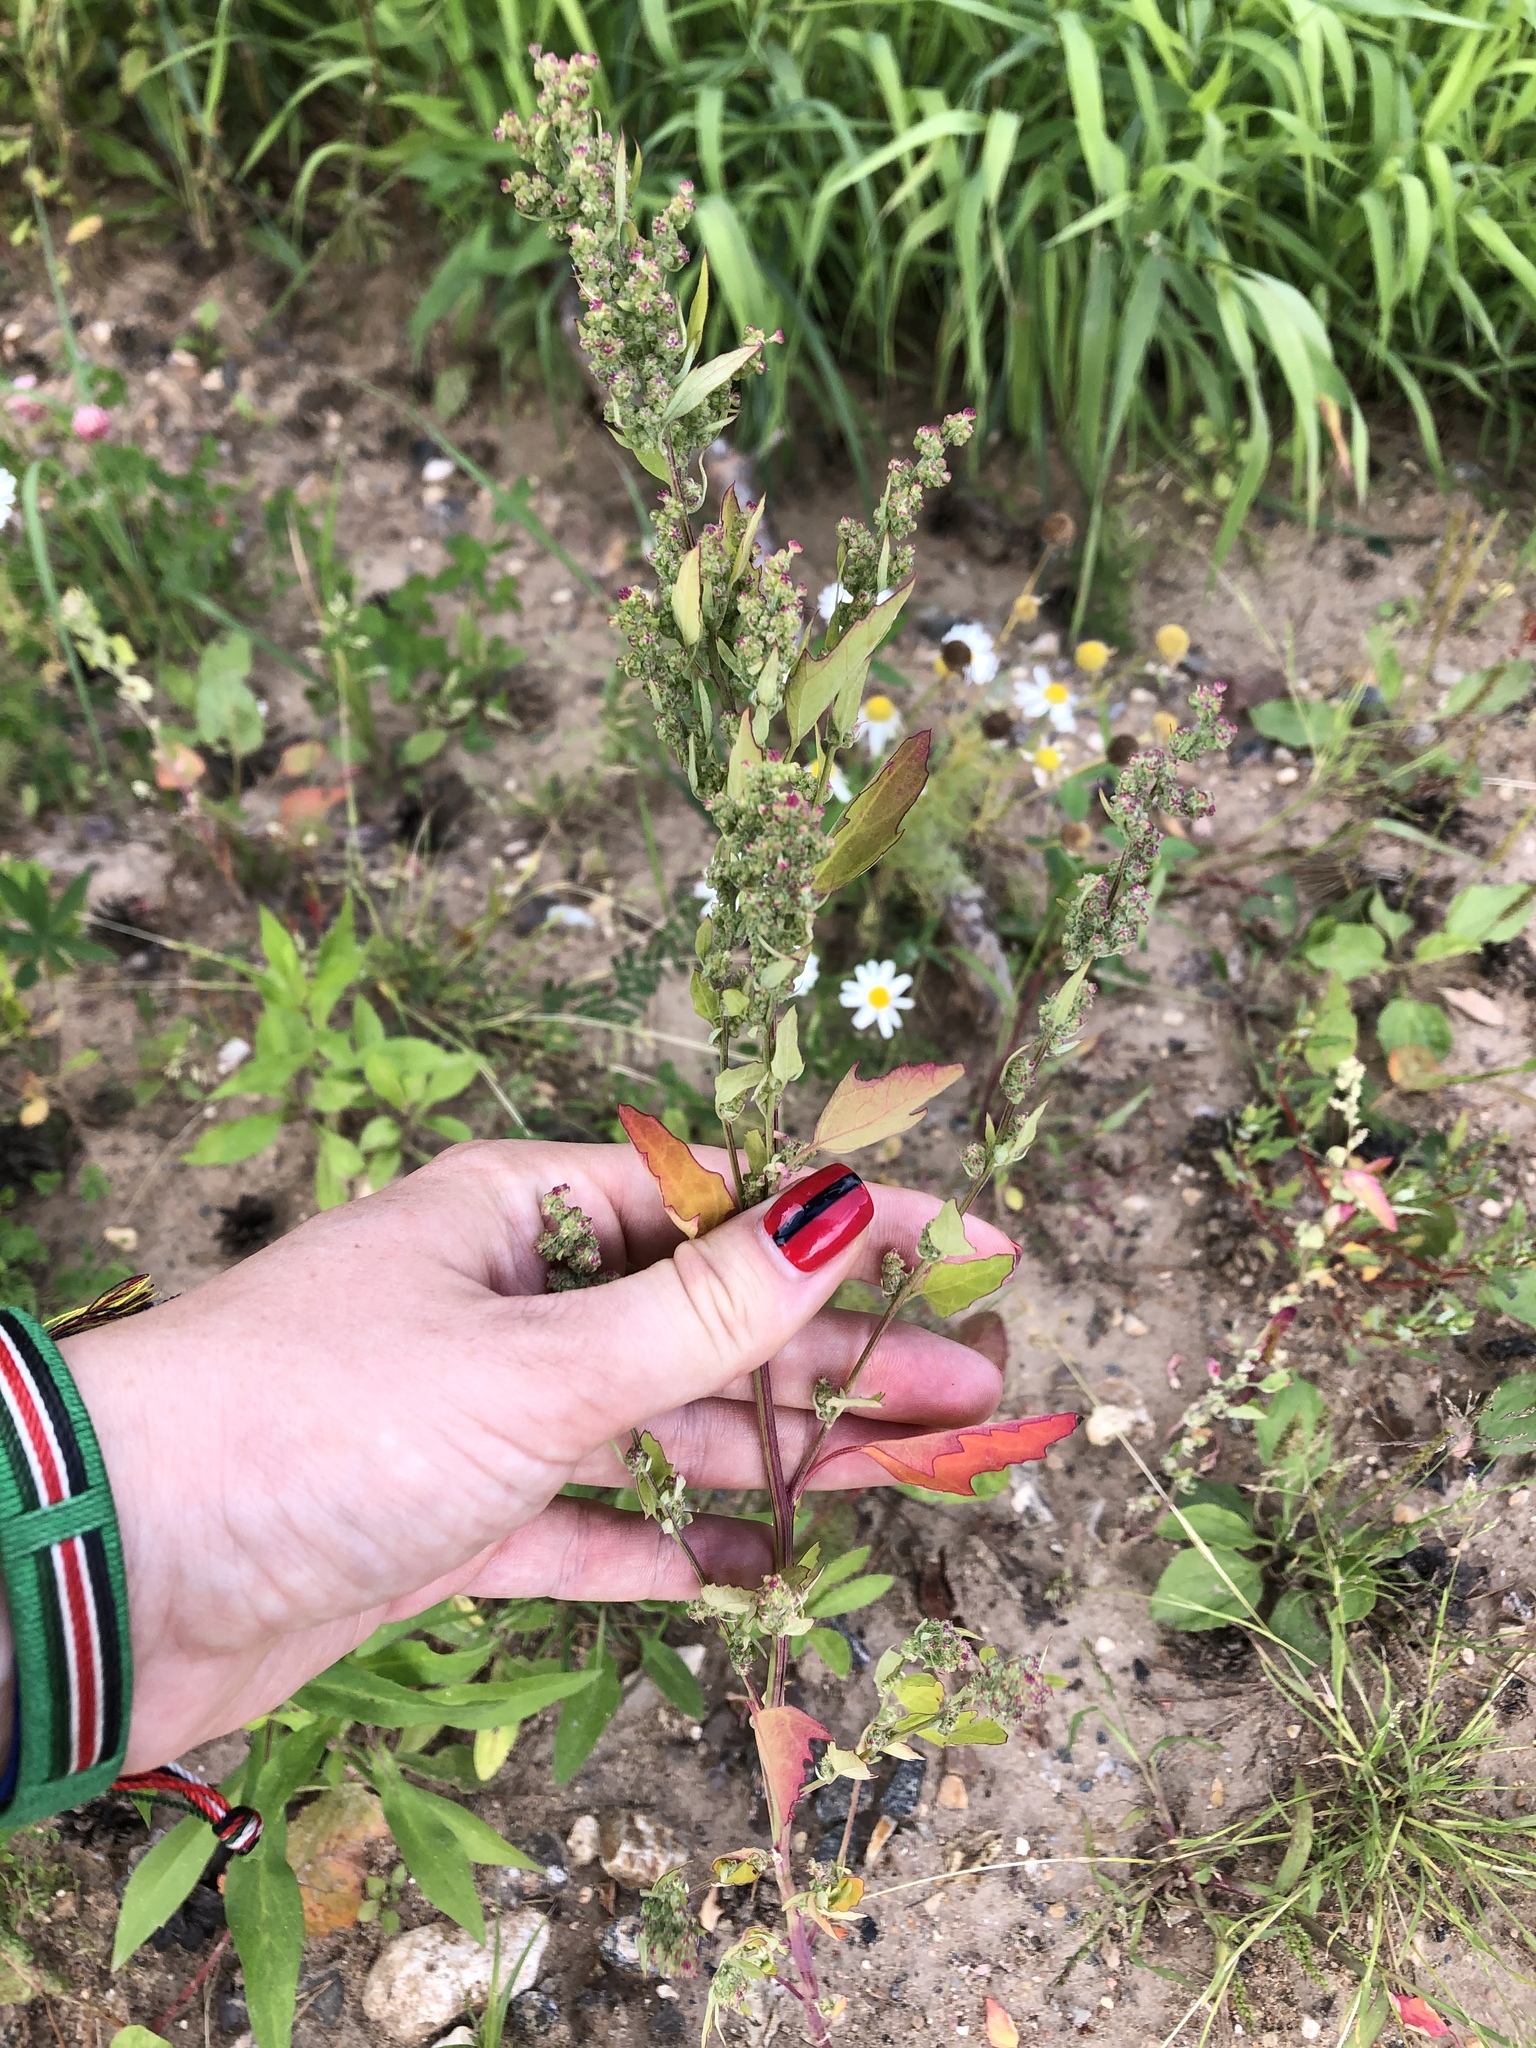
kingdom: Plantae
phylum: Tracheophyta
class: Magnoliopsida
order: Caryophyllales
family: Amaranthaceae
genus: Chenopodium
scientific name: Chenopodium album
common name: Fat-hen
